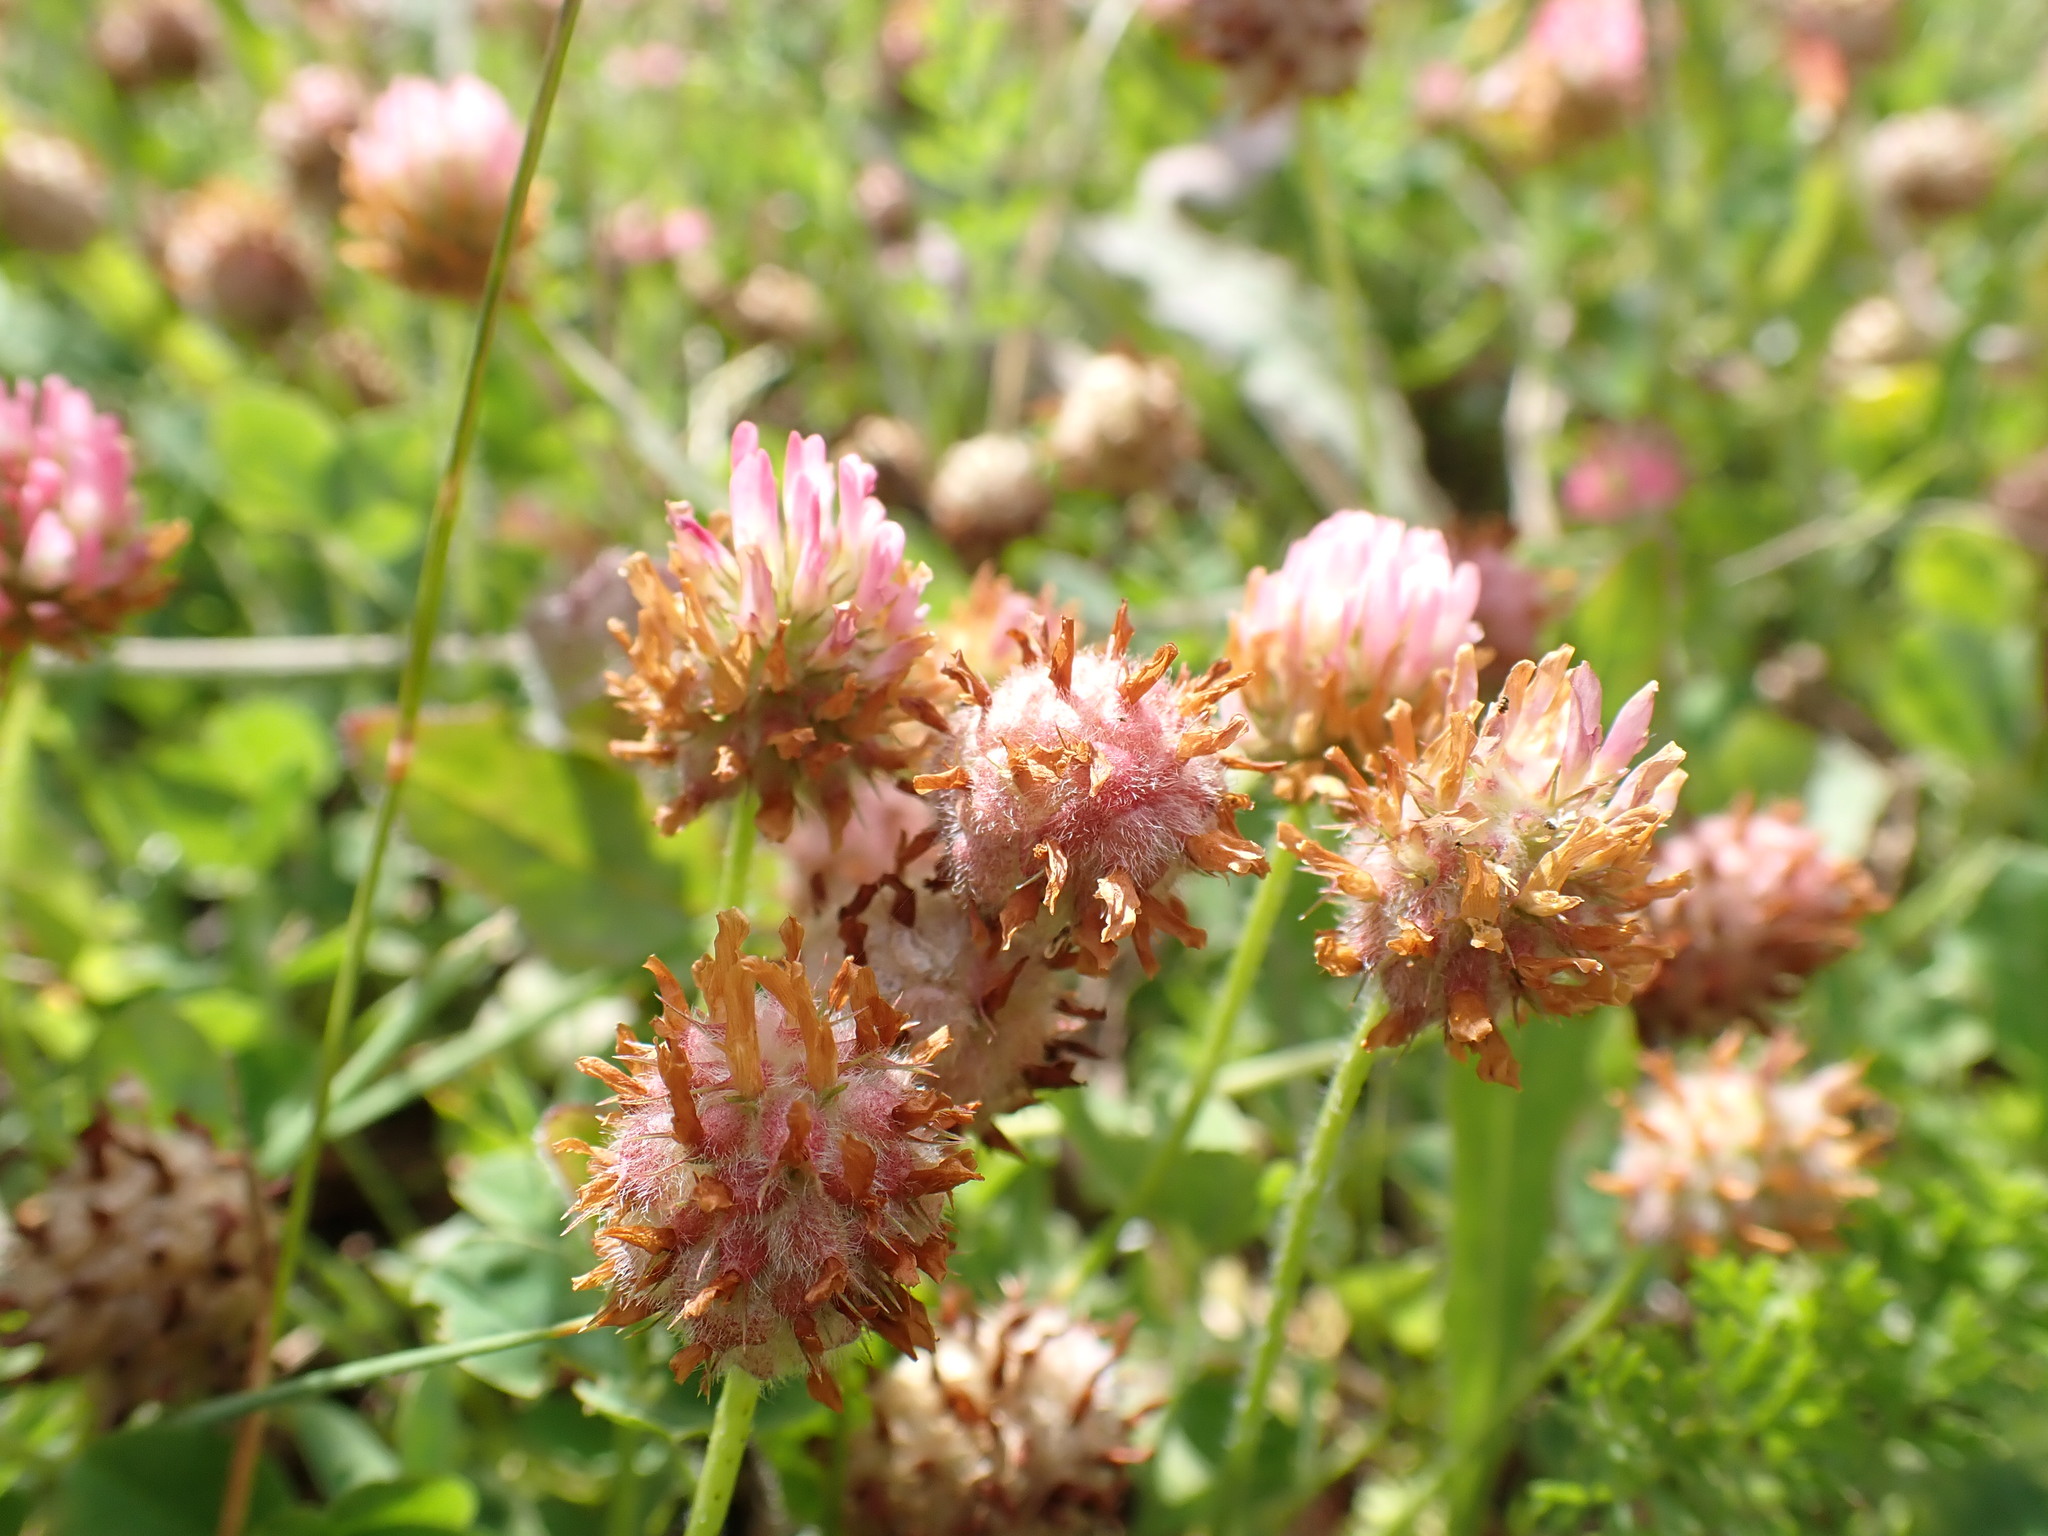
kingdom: Plantae
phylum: Tracheophyta
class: Magnoliopsida
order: Fabales
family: Fabaceae
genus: Trifolium
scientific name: Trifolium fragiferum
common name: Strawberry clover
